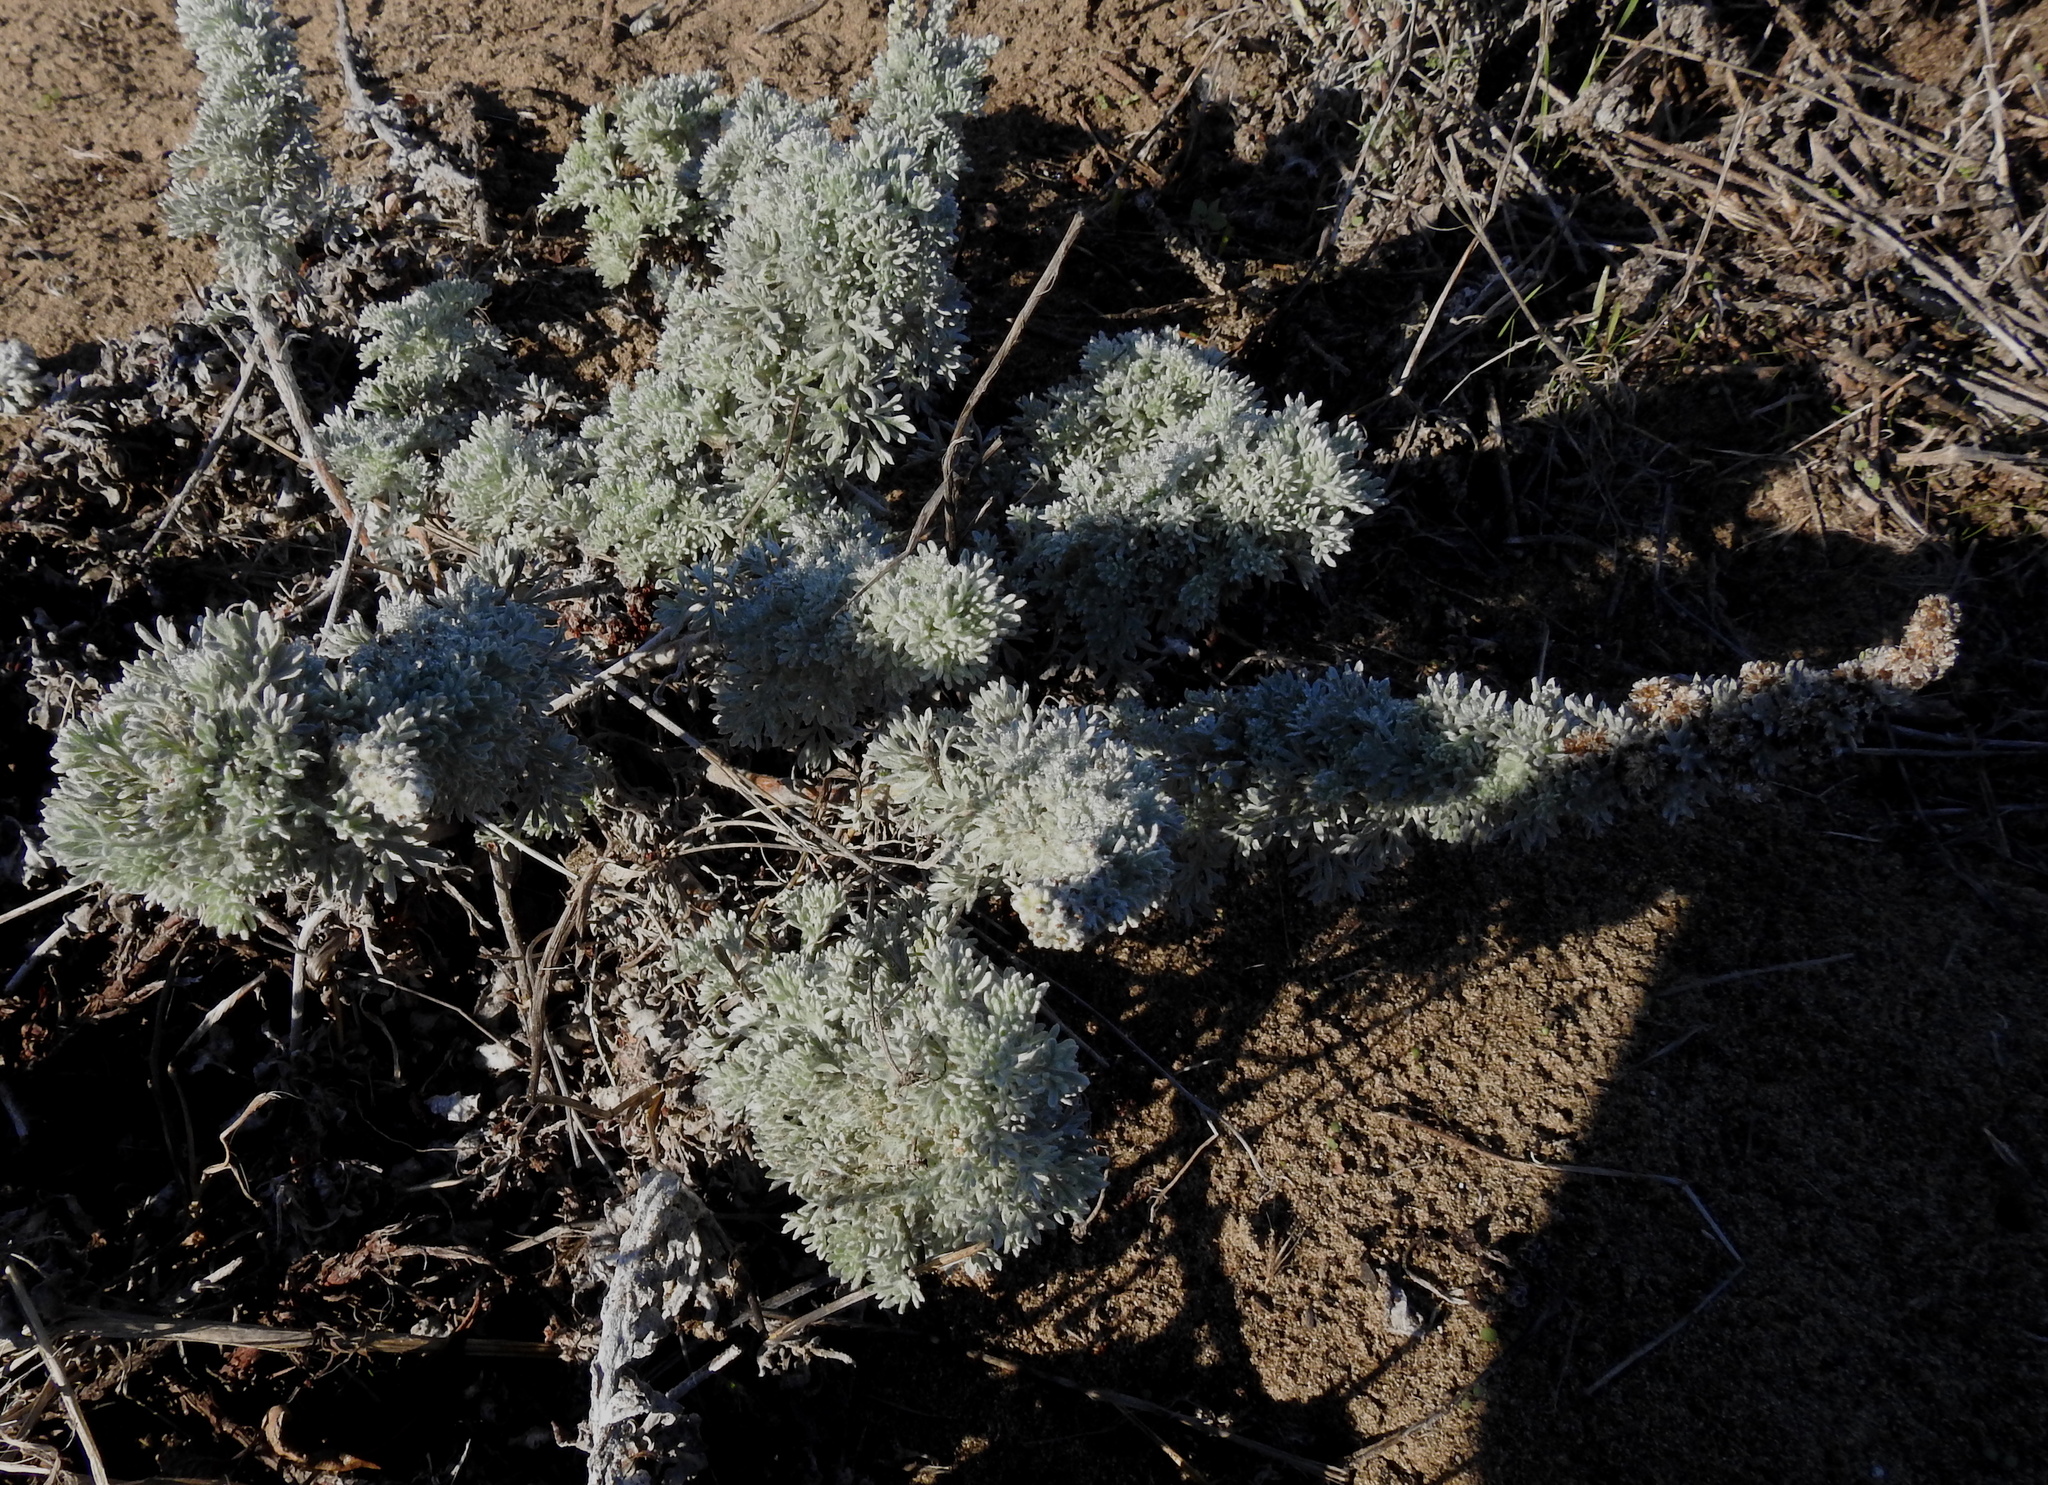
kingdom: Plantae
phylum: Tracheophyta
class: Magnoliopsida
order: Asterales
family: Asteraceae
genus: Artemisia
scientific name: Artemisia pycnocephala
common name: Coastal sagewort
